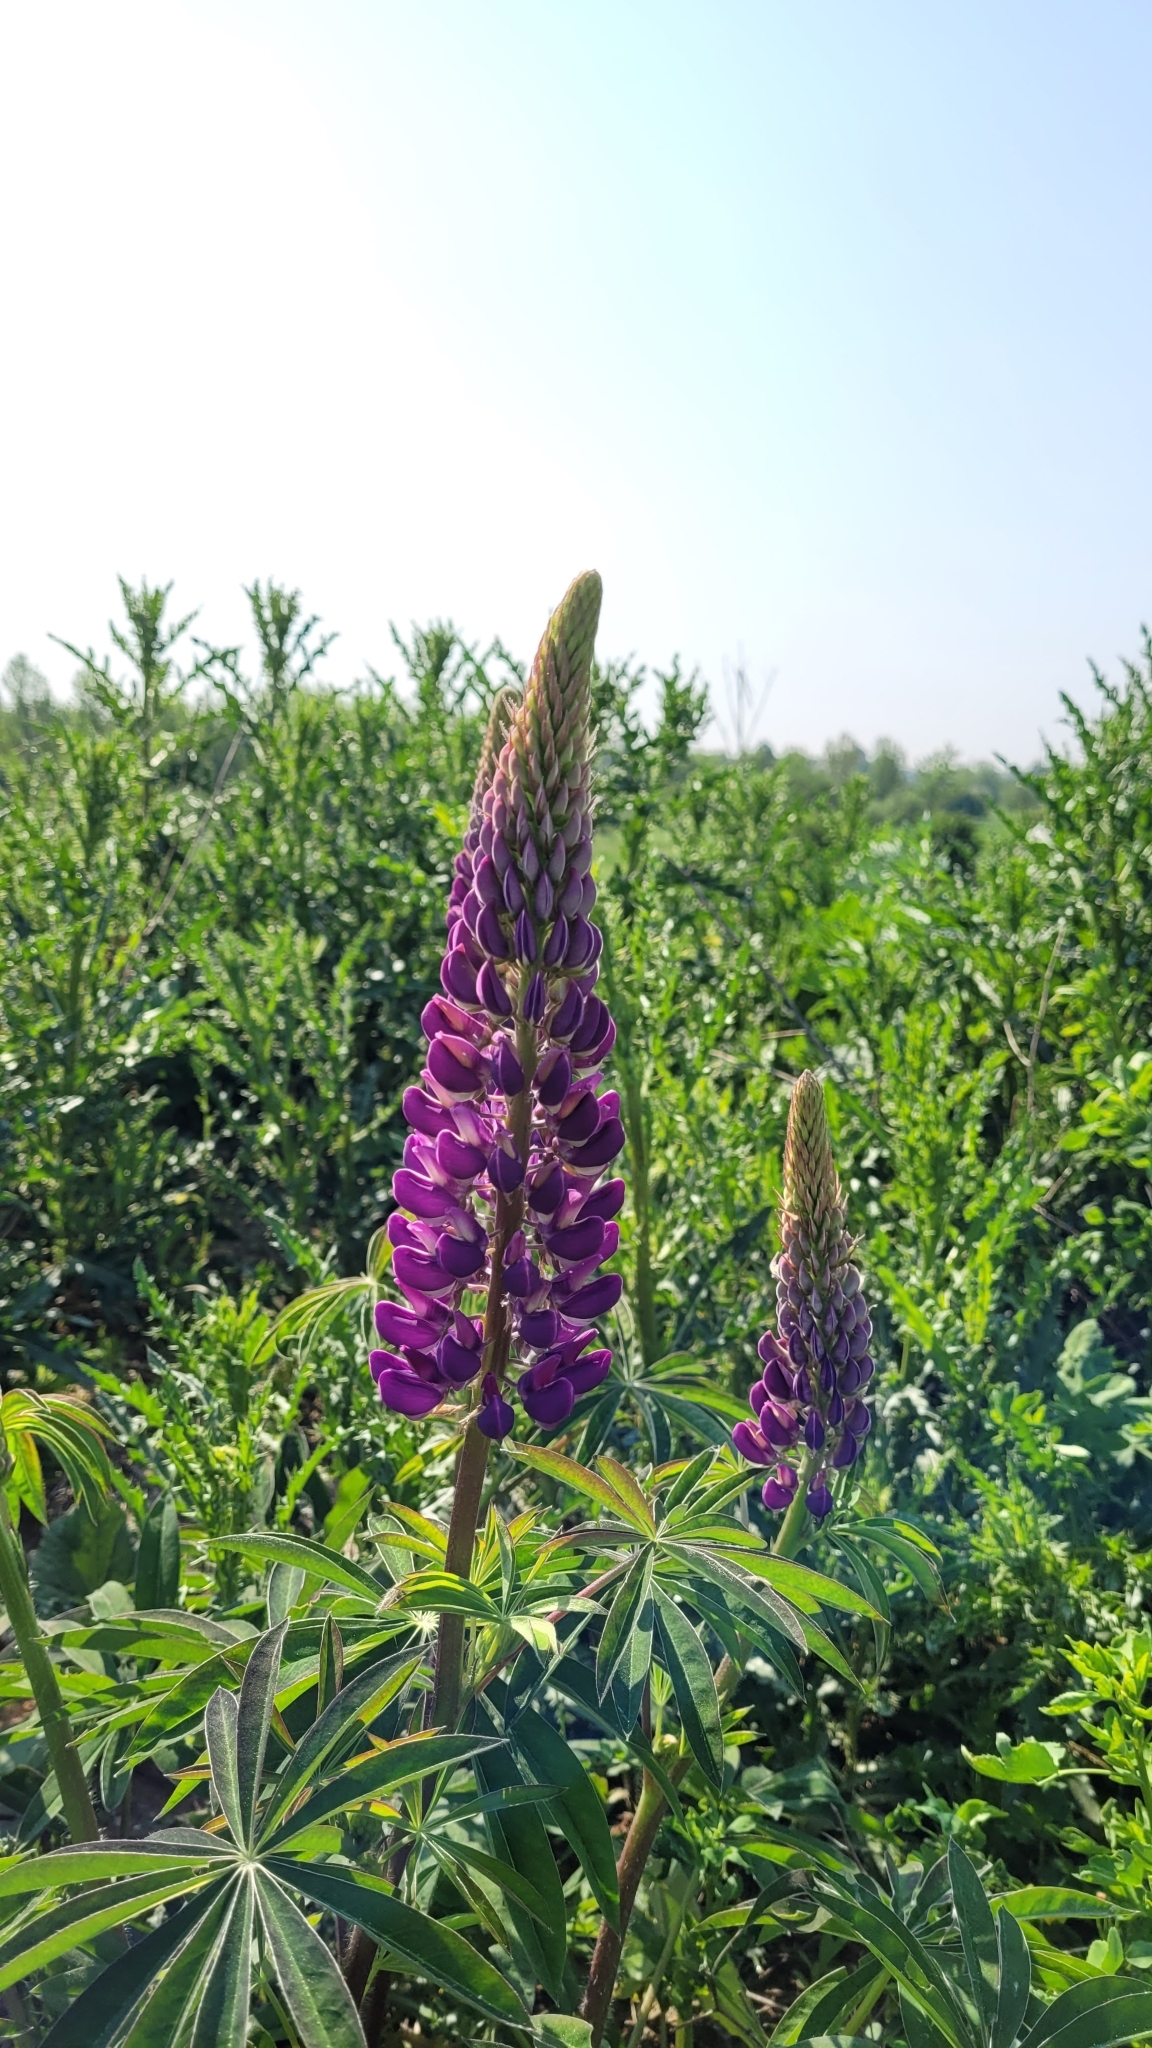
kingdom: Plantae
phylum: Tracheophyta
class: Magnoliopsida
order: Fabales
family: Fabaceae
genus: Lupinus
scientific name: Lupinus polyphyllus
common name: Garden lupin
